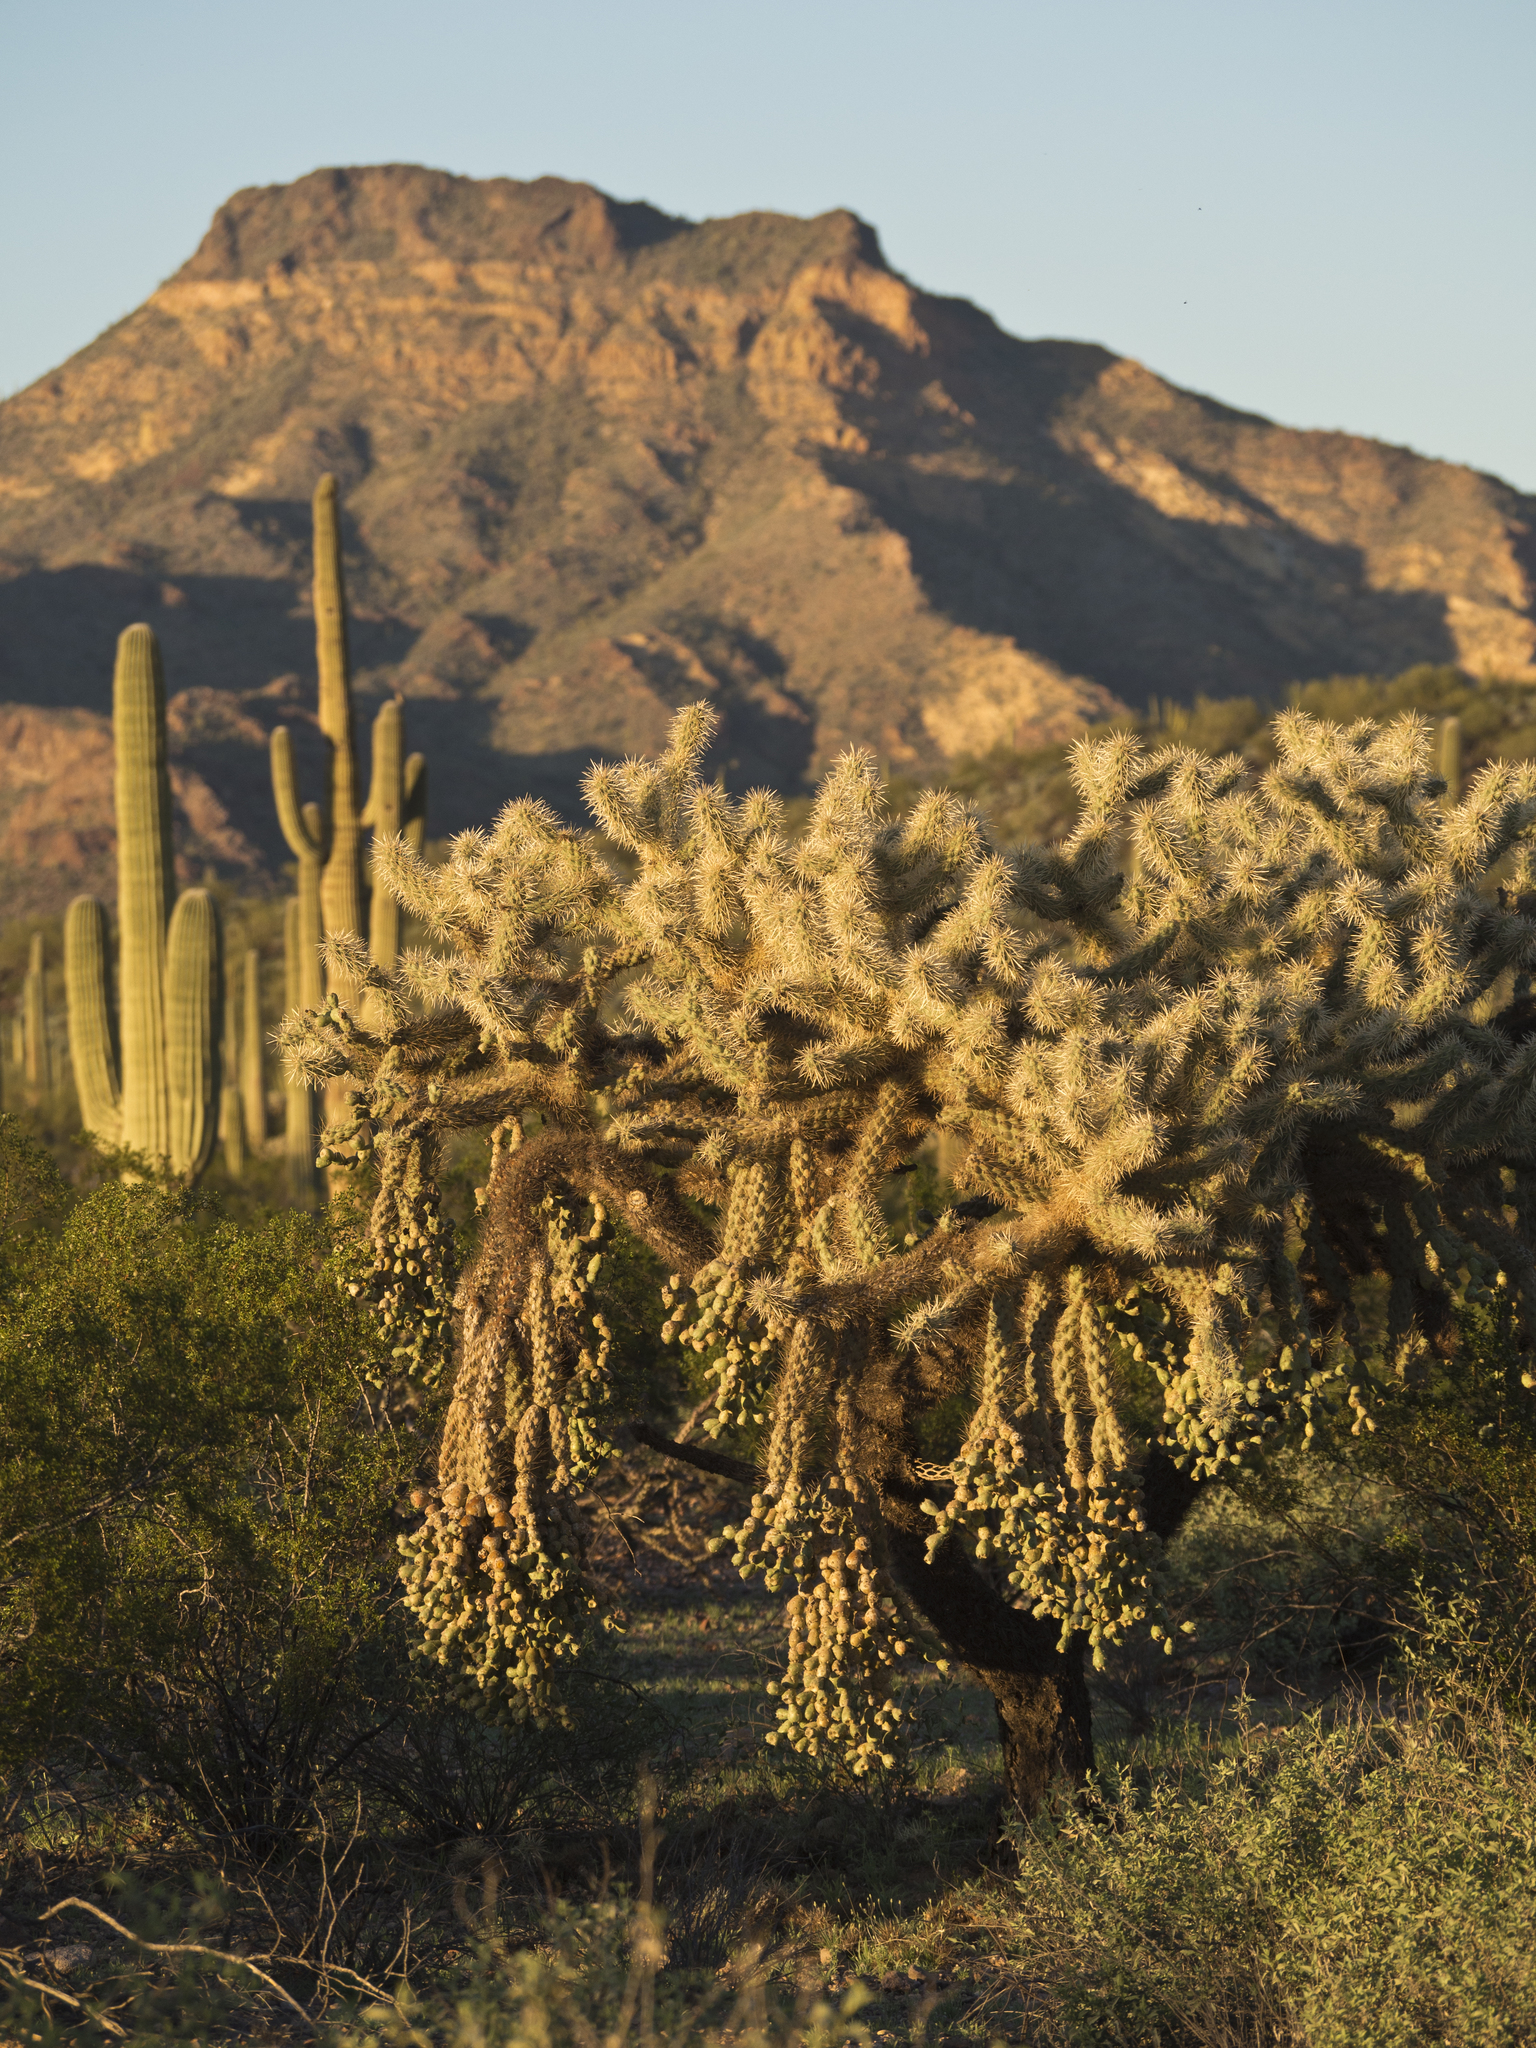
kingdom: Plantae
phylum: Tracheophyta
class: Magnoliopsida
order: Caryophyllales
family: Cactaceae
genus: Cylindropuntia
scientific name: Cylindropuntia fulgida
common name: Jumping cholla
